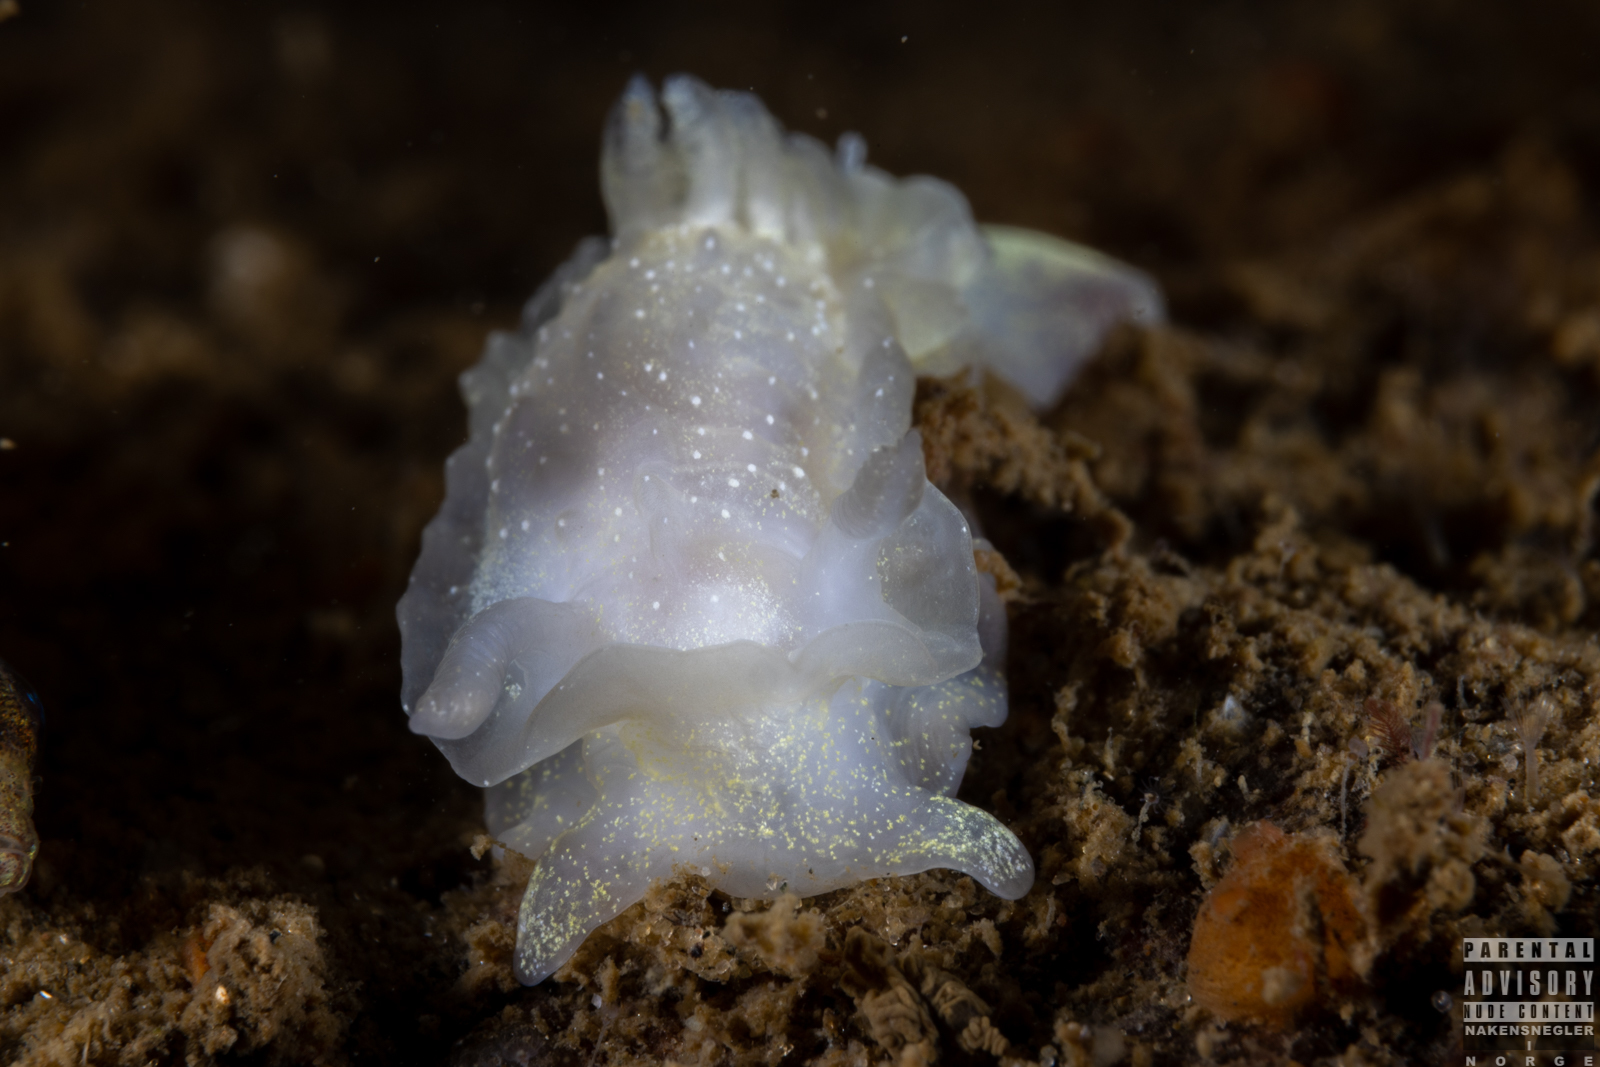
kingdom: Animalia
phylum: Mollusca
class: Gastropoda
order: Nudibranchia
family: Goniodorididae
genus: Okenia
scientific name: Okenia
